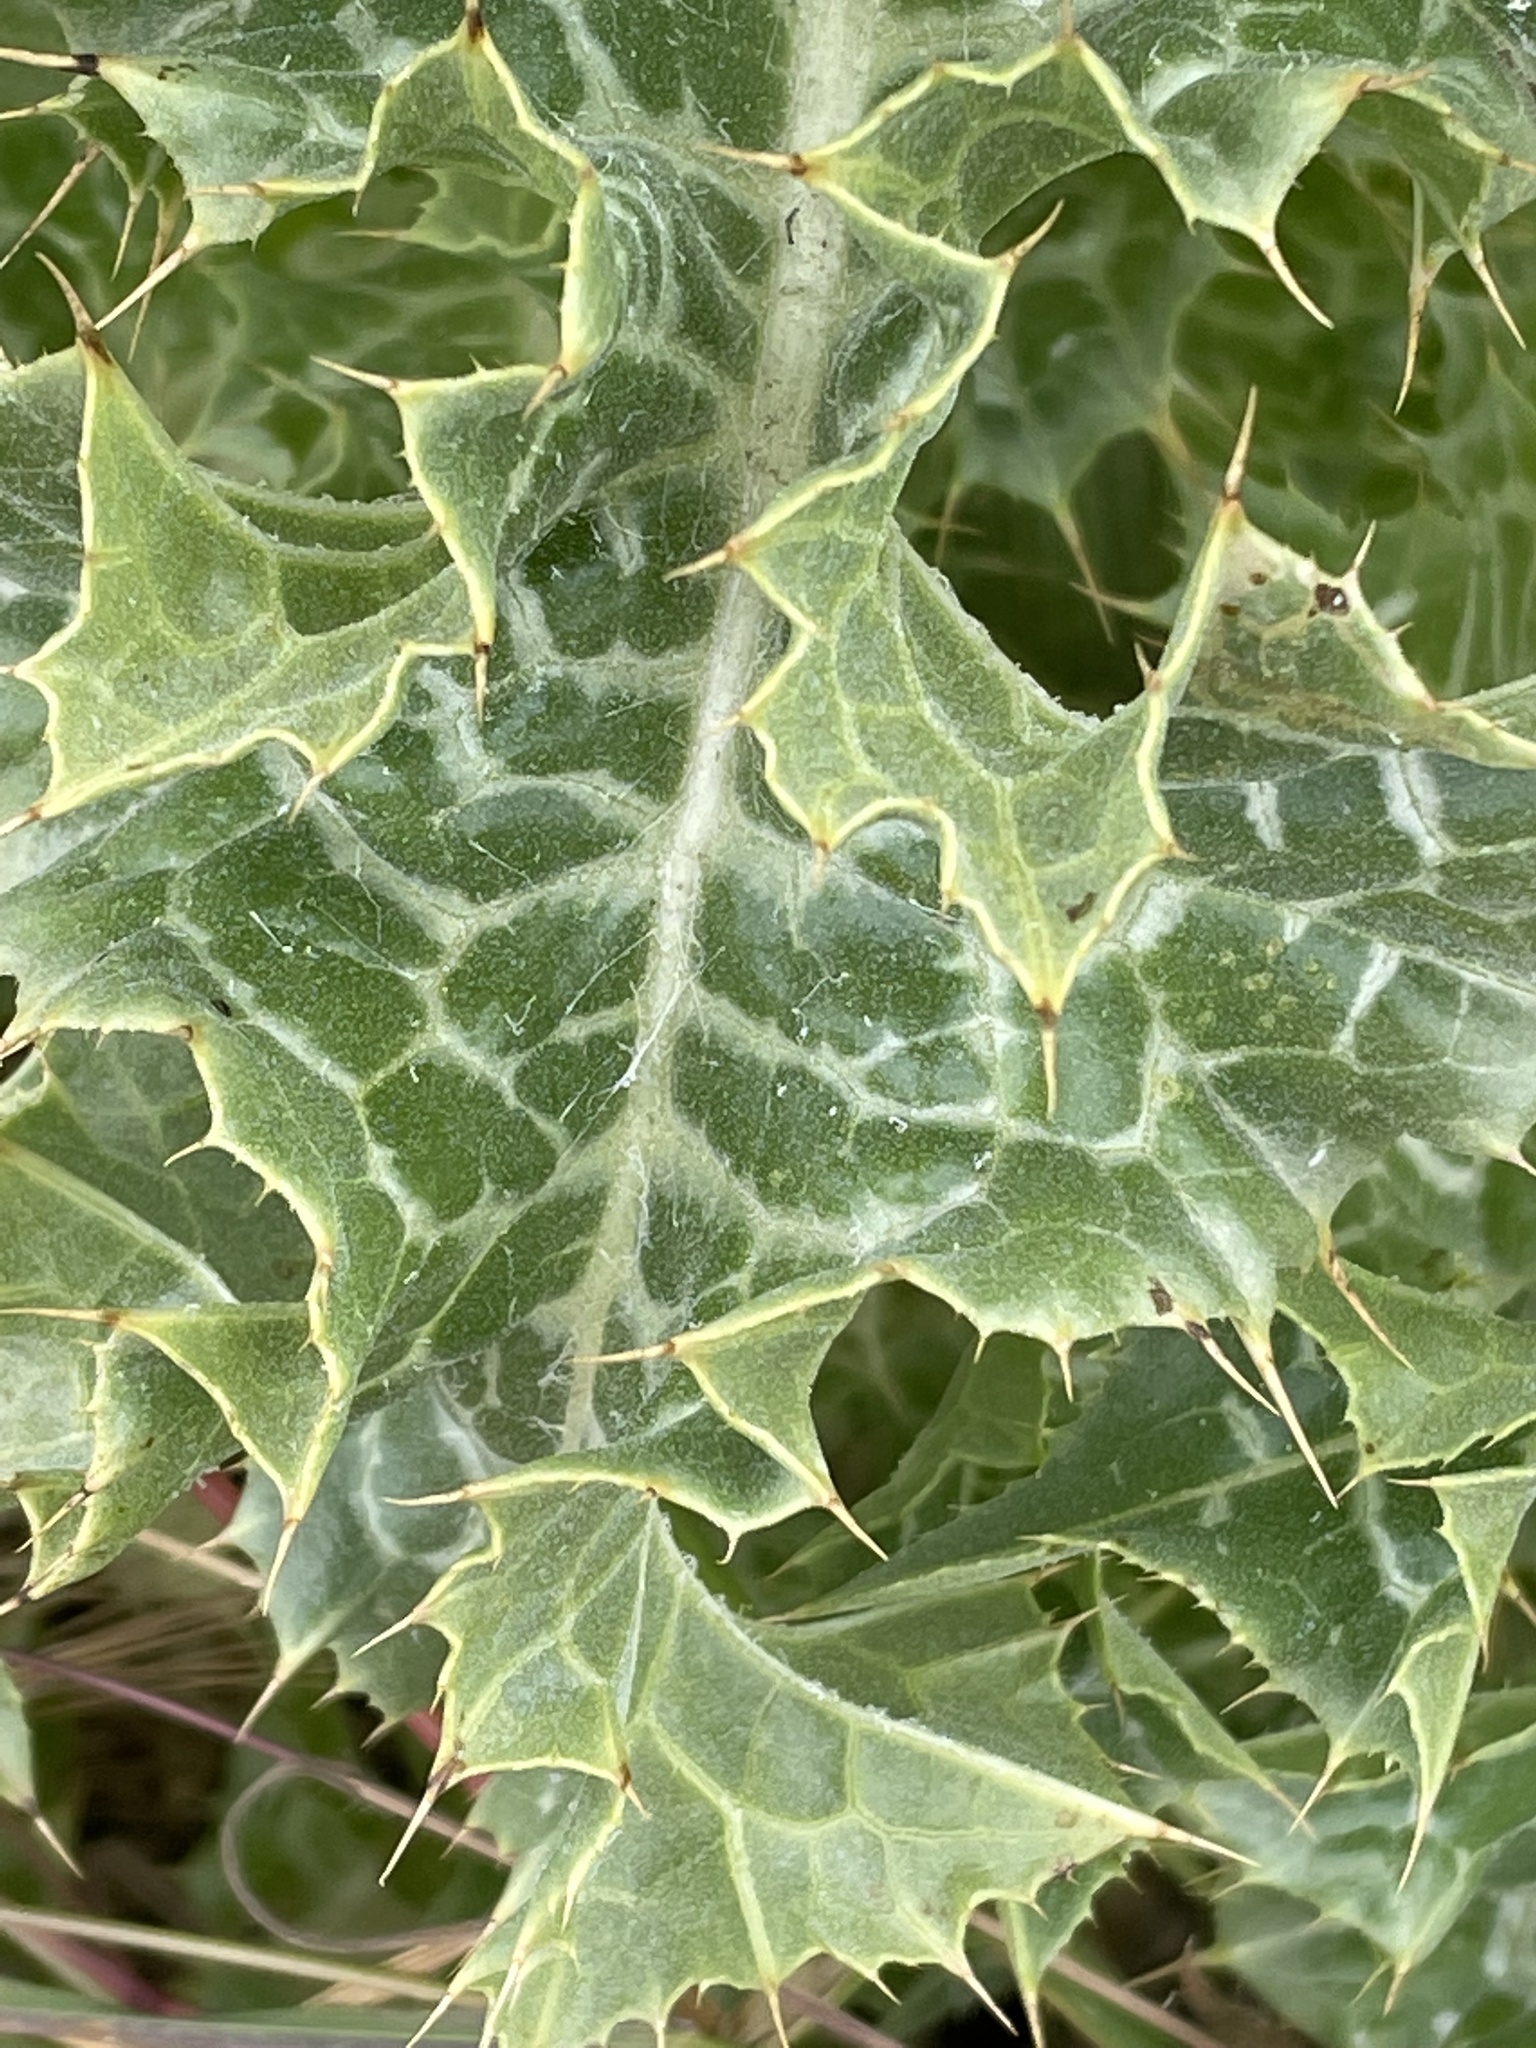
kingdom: Plantae
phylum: Tracheophyta
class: Magnoliopsida
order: Asterales
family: Asteraceae
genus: Silybum
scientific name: Silybum marianum
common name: Milk thistle
